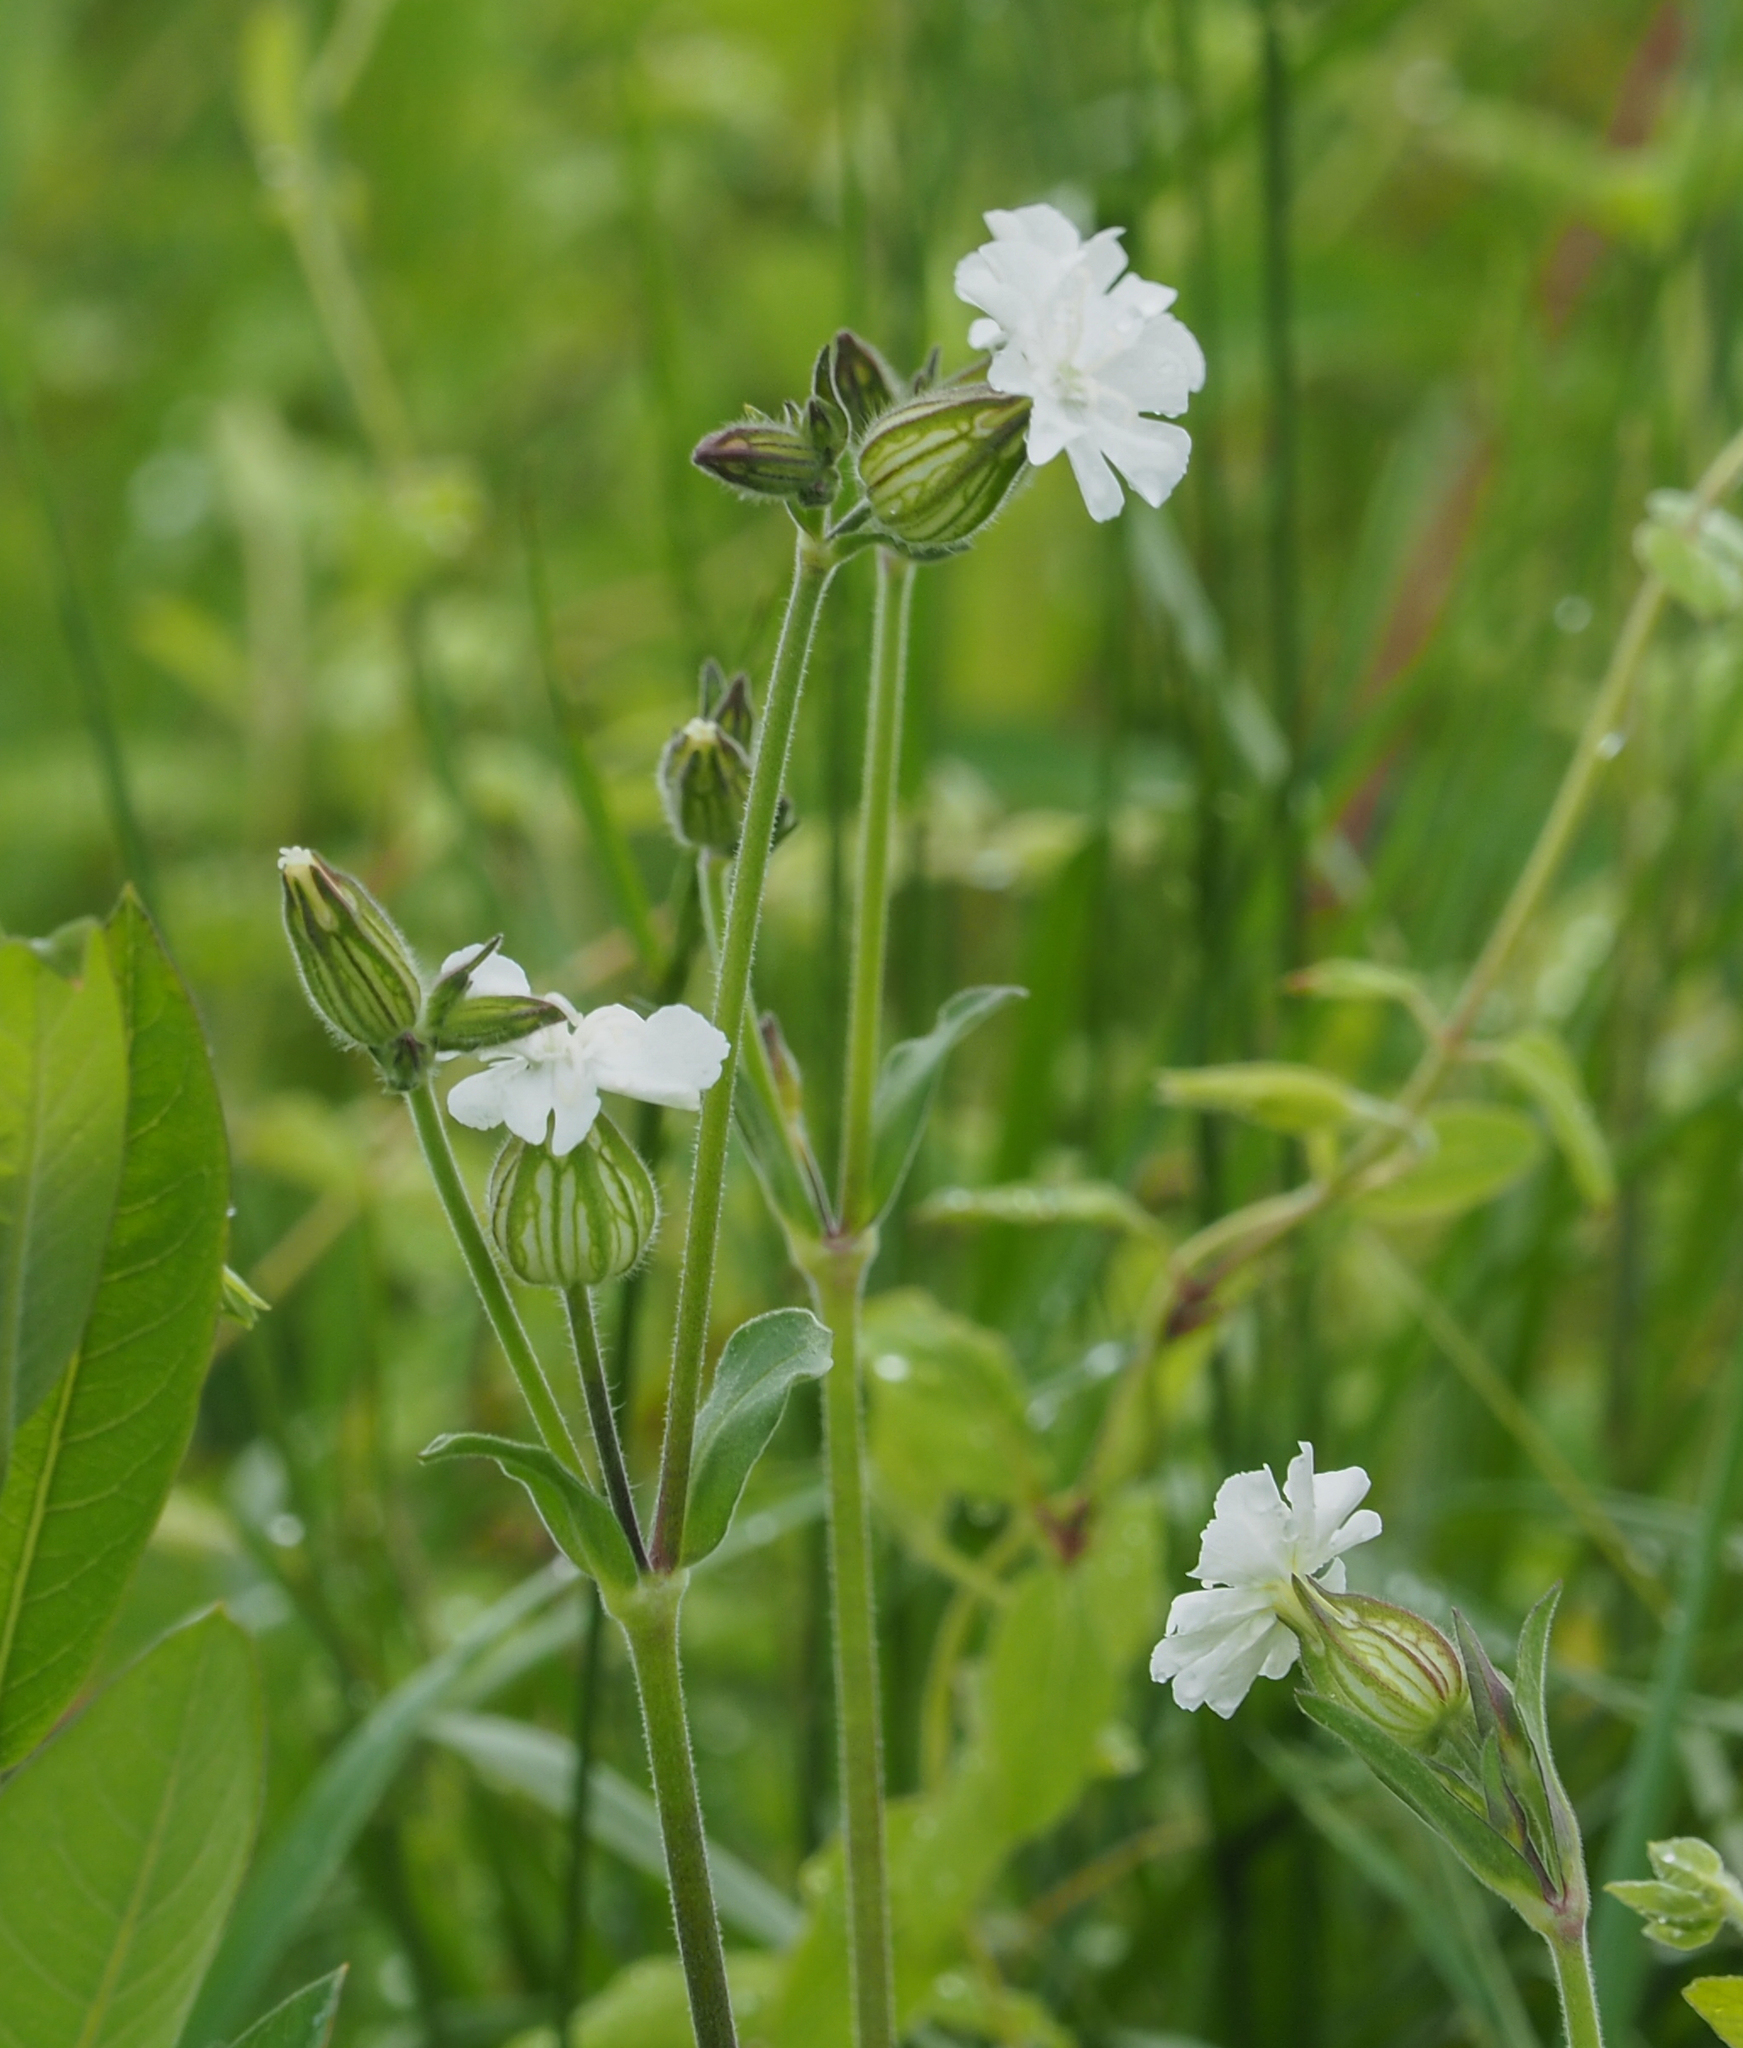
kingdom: Plantae
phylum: Tracheophyta
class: Magnoliopsida
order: Caryophyllales
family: Caryophyllaceae
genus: Silene
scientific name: Silene latifolia
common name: White campion
